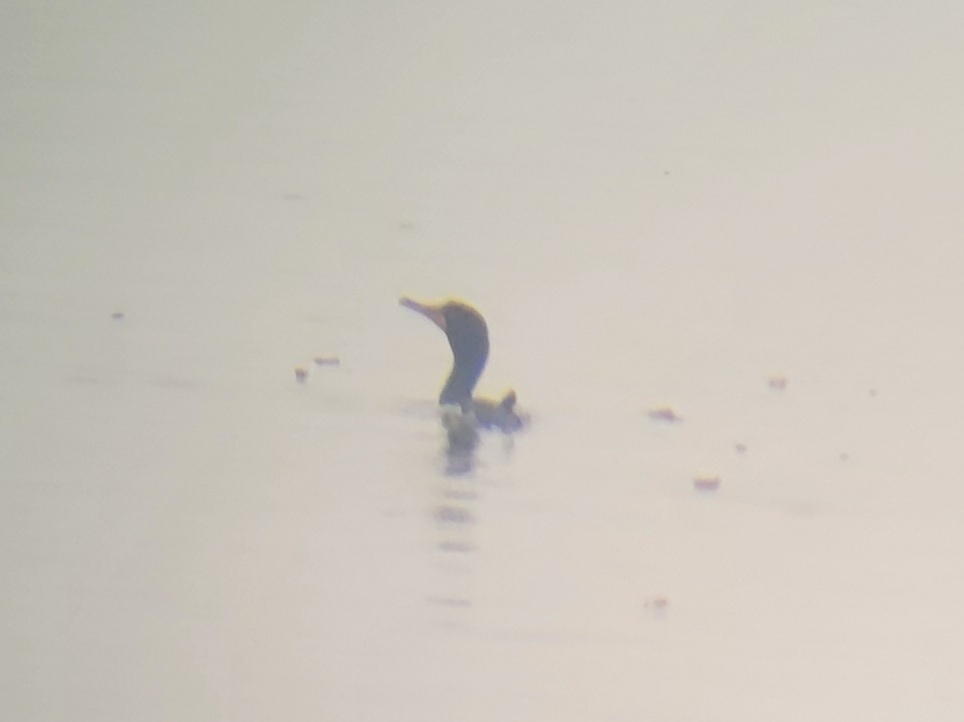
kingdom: Animalia
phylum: Chordata
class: Aves
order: Suliformes
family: Phalacrocoracidae
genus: Phalacrocorax
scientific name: Phalacrocorax auritus
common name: Double-crested cormorant
